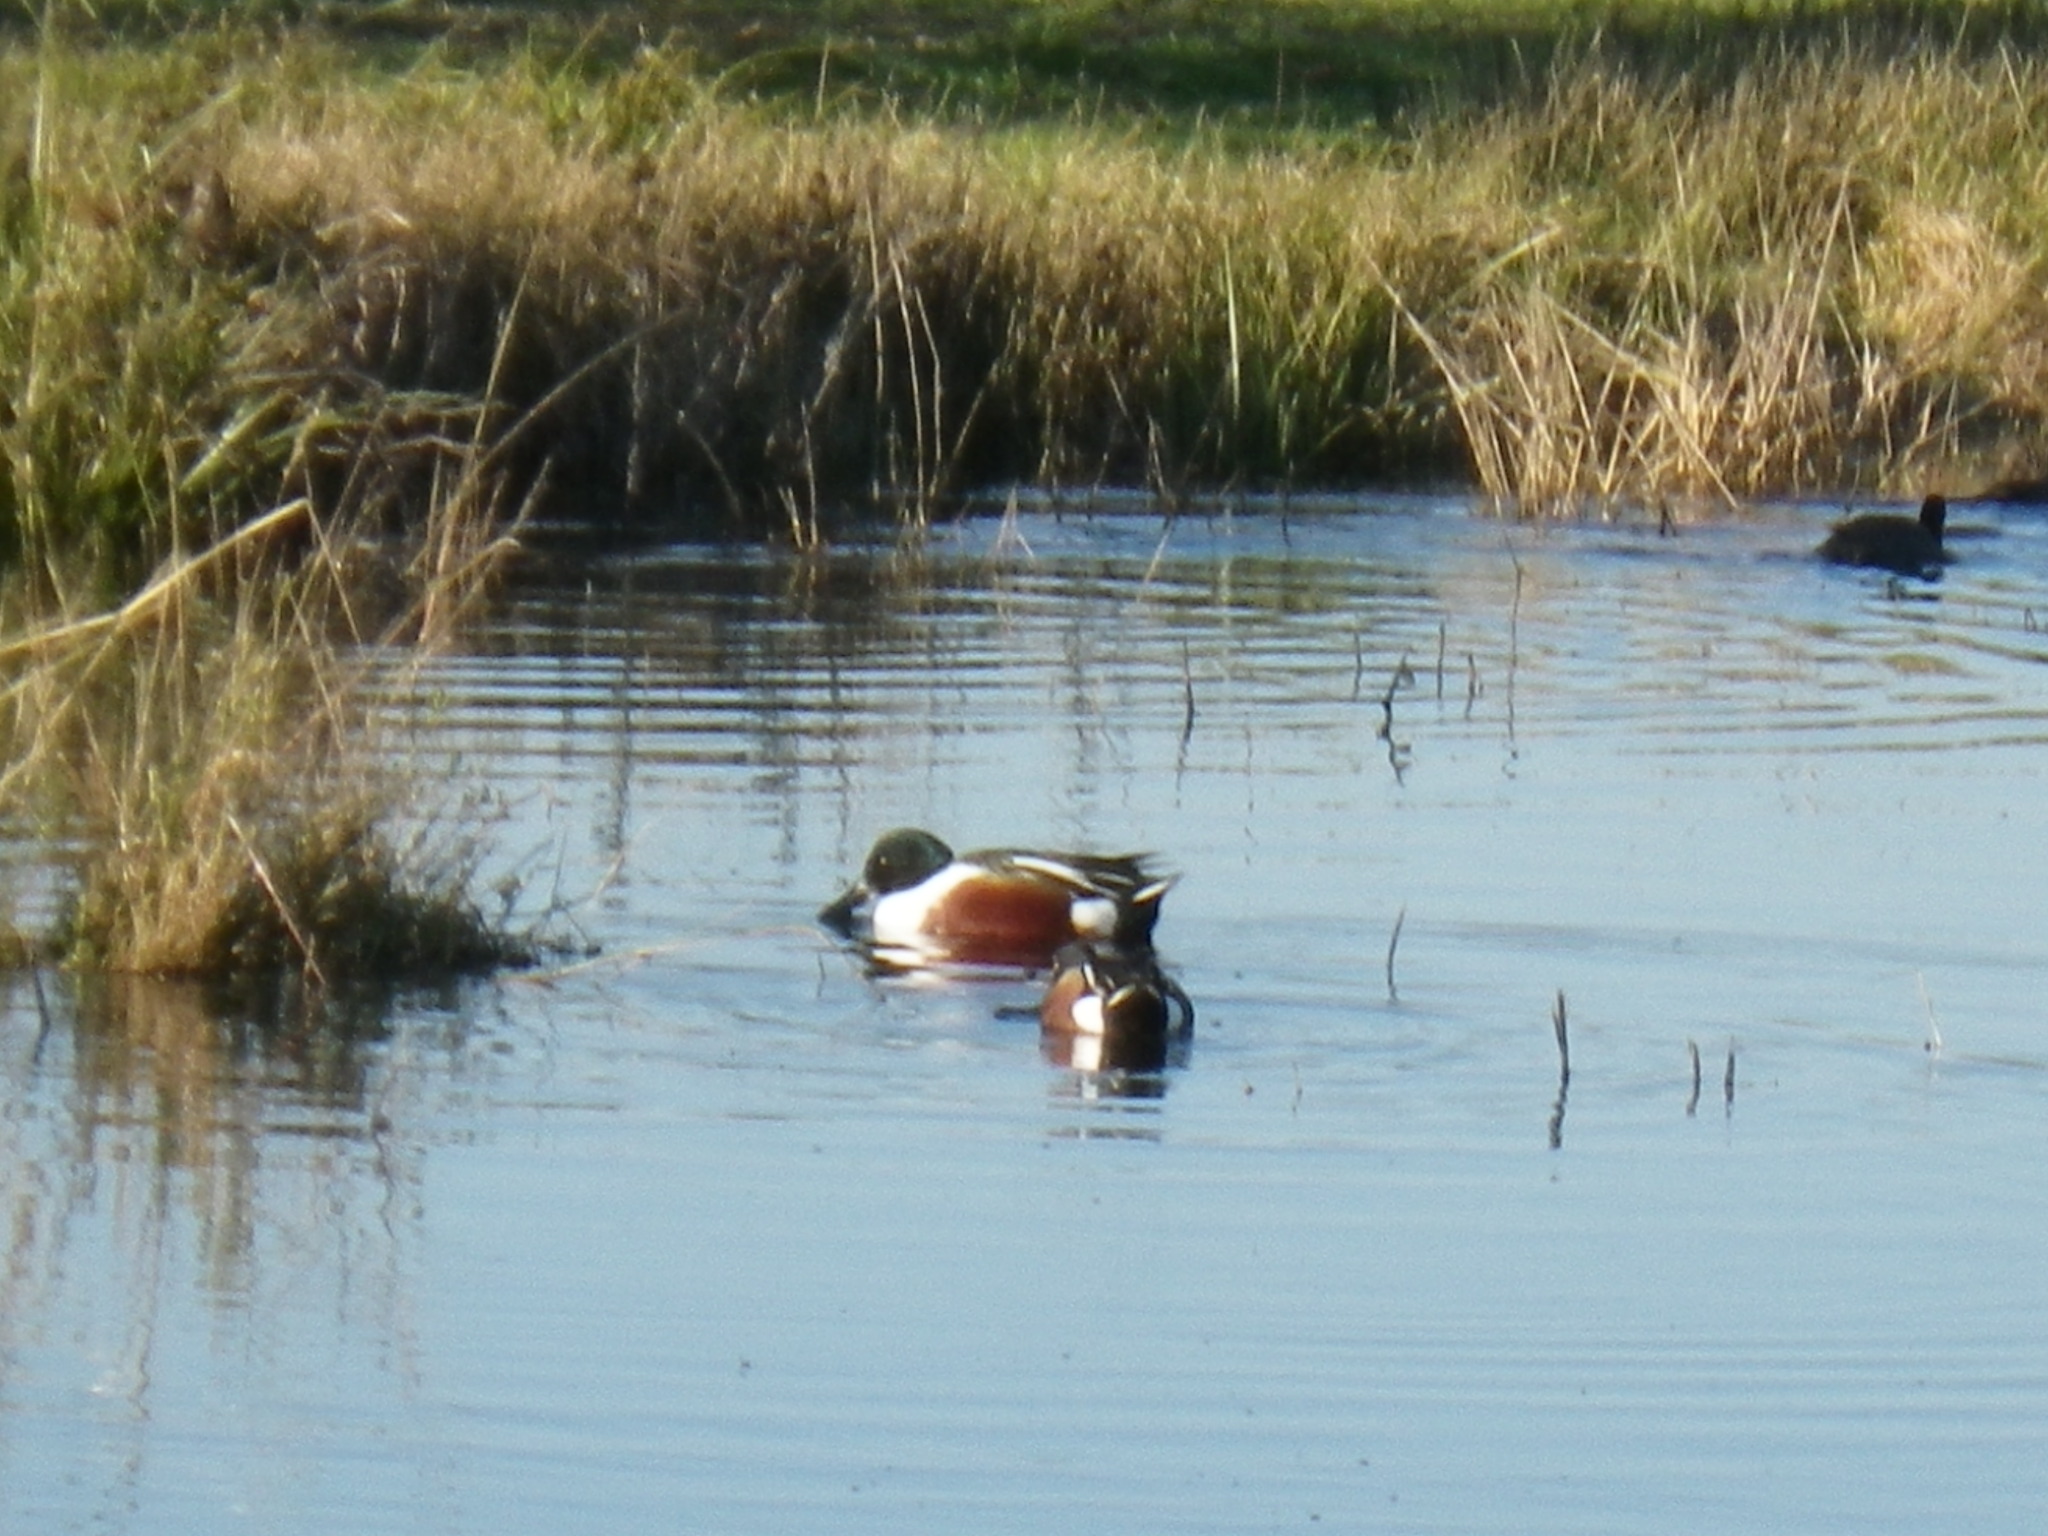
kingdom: Animalia
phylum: Chordata
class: Aves
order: Anseriformes
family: Anatidae
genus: Spatula
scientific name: Spatula clypeata
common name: Northern shoveler
